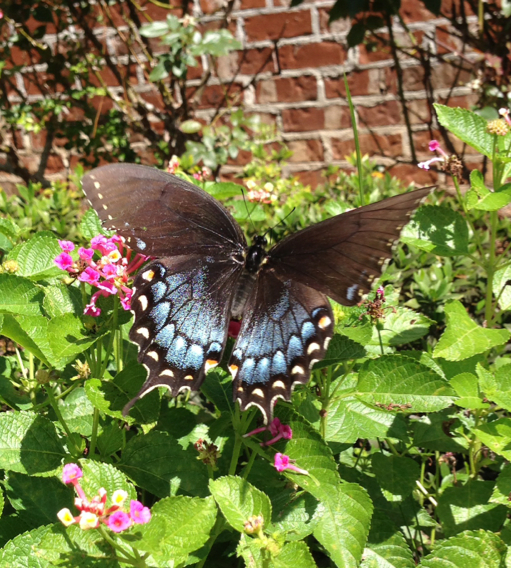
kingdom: Animalia
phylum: Arthropoda
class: Insecta
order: Lepidoptera
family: Papilionidae
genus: Papilio
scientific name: Papilio glaucus
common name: Tiger swallowtail
